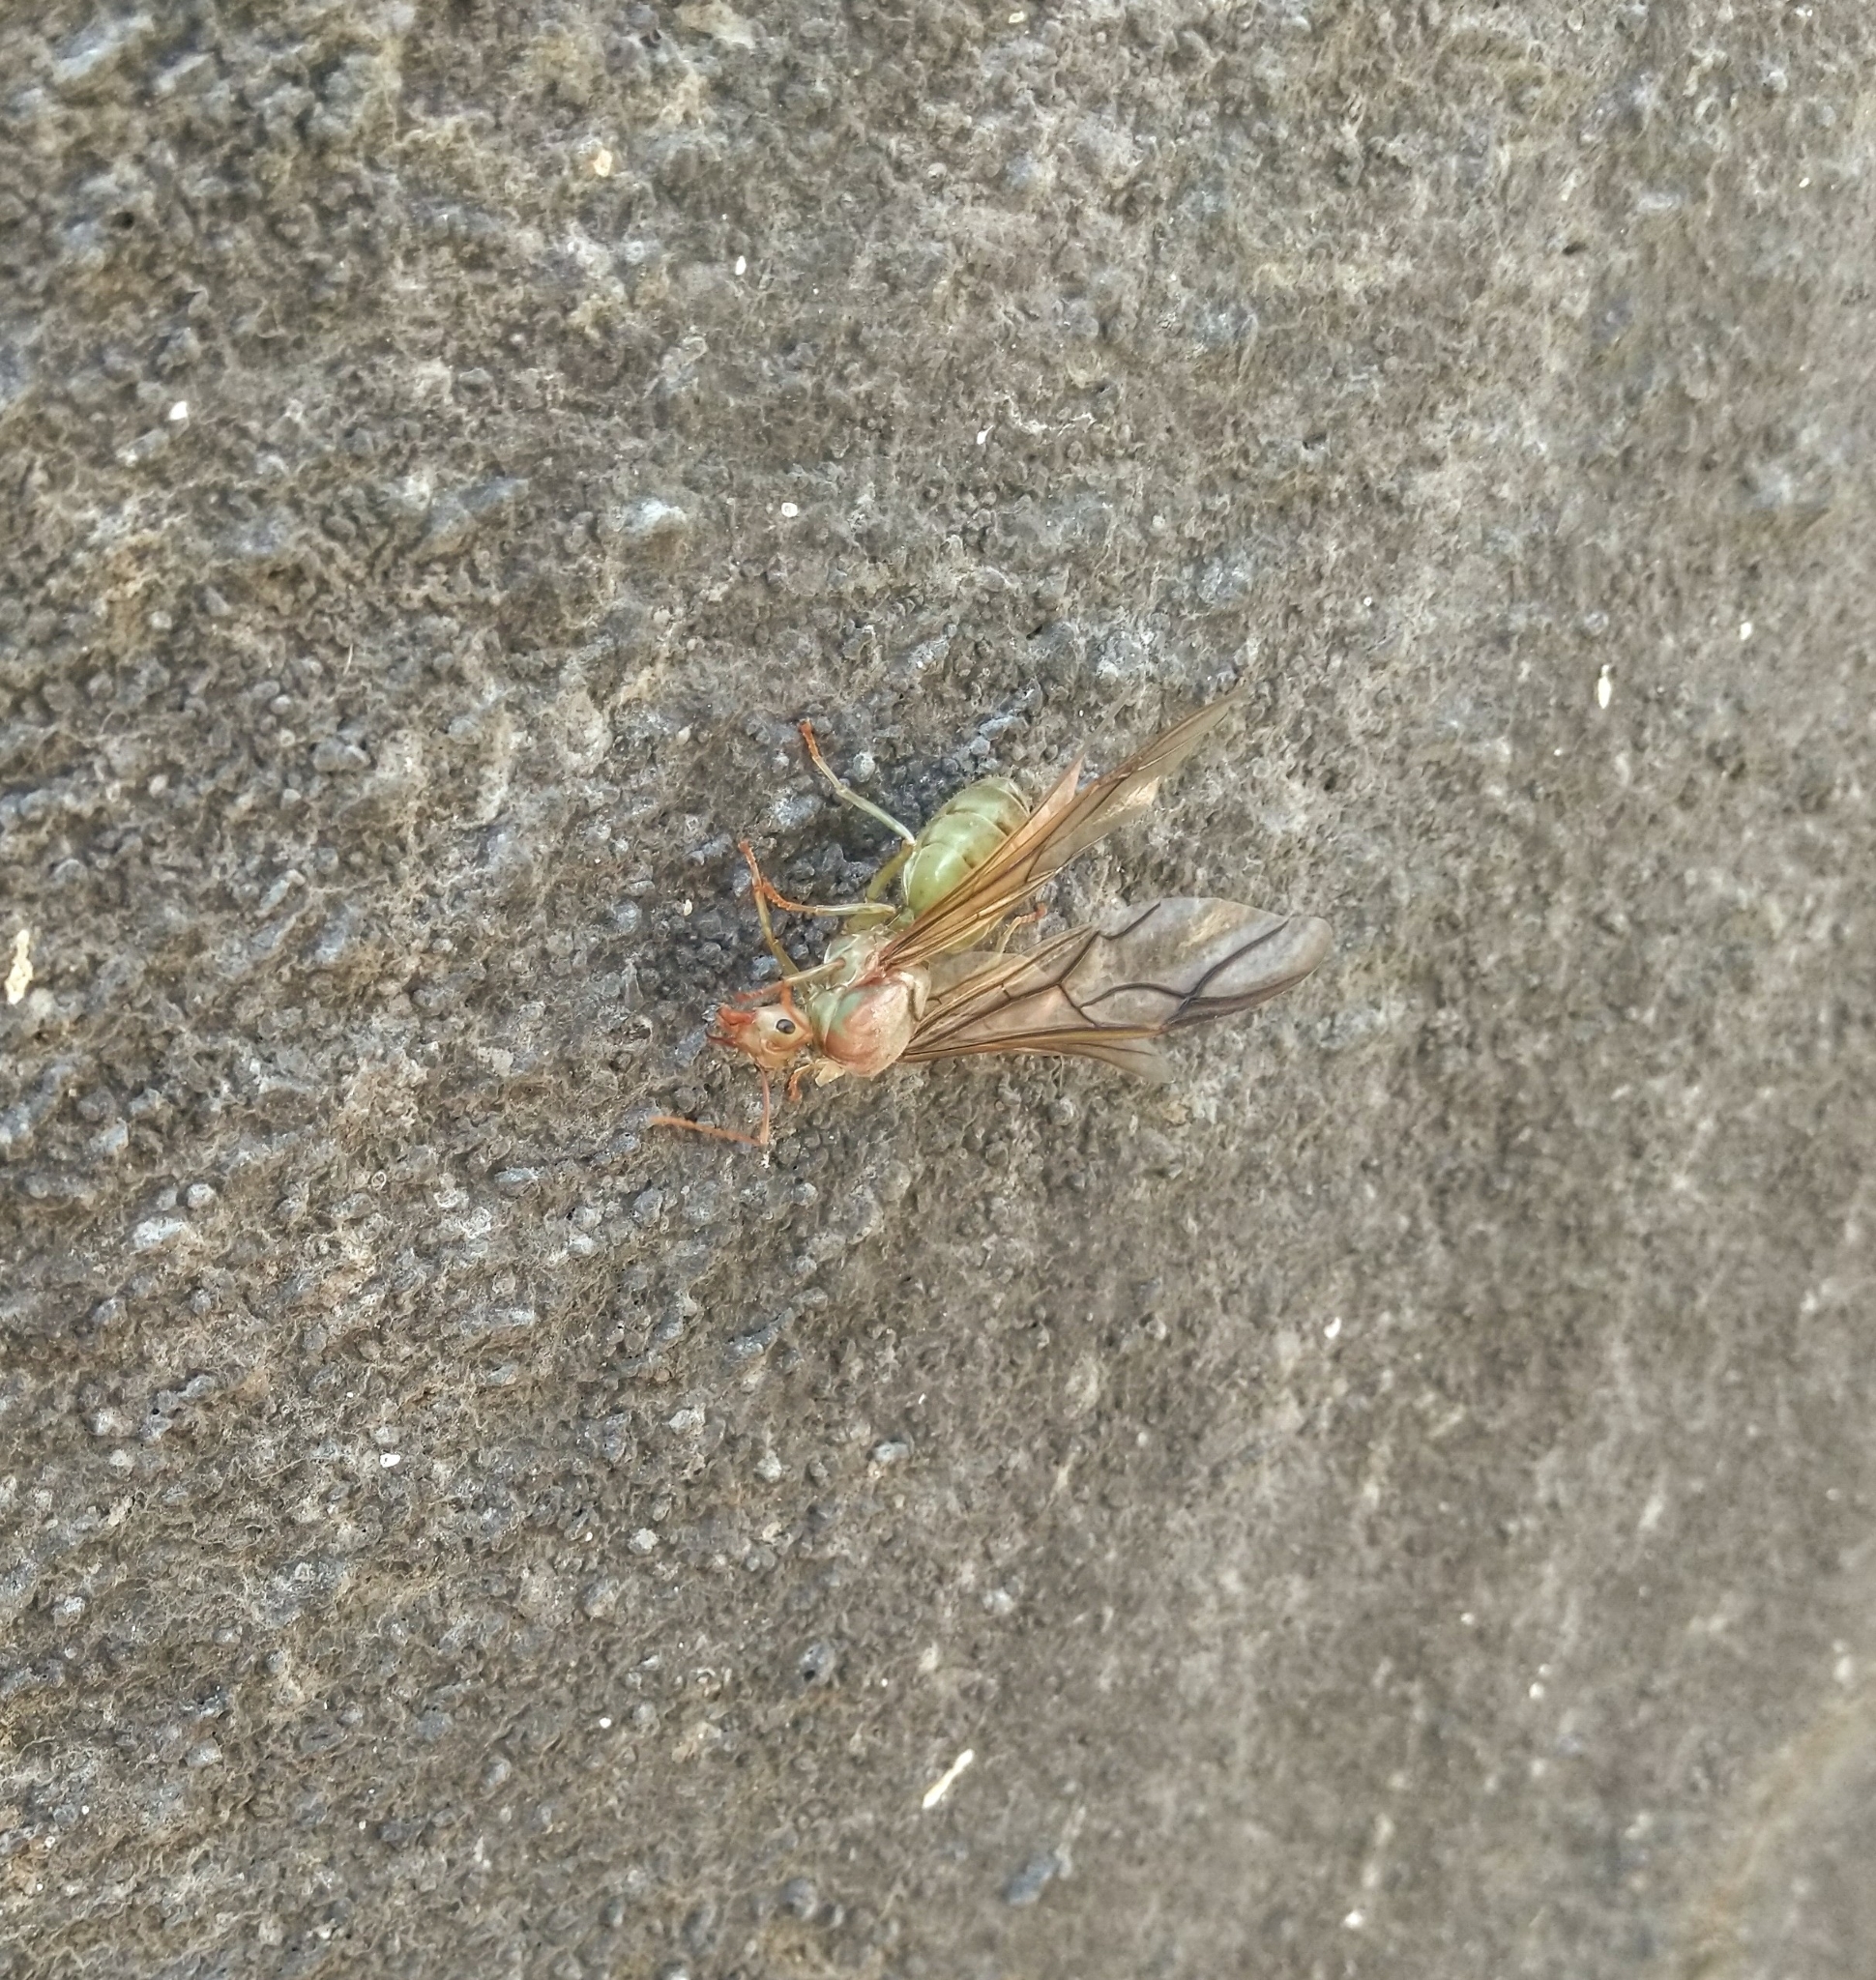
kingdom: Animalia
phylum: Arthropoda
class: Insecta
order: Hymenoptera
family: Formicidae
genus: Oecophylla
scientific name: Oecophylla smaragdina
